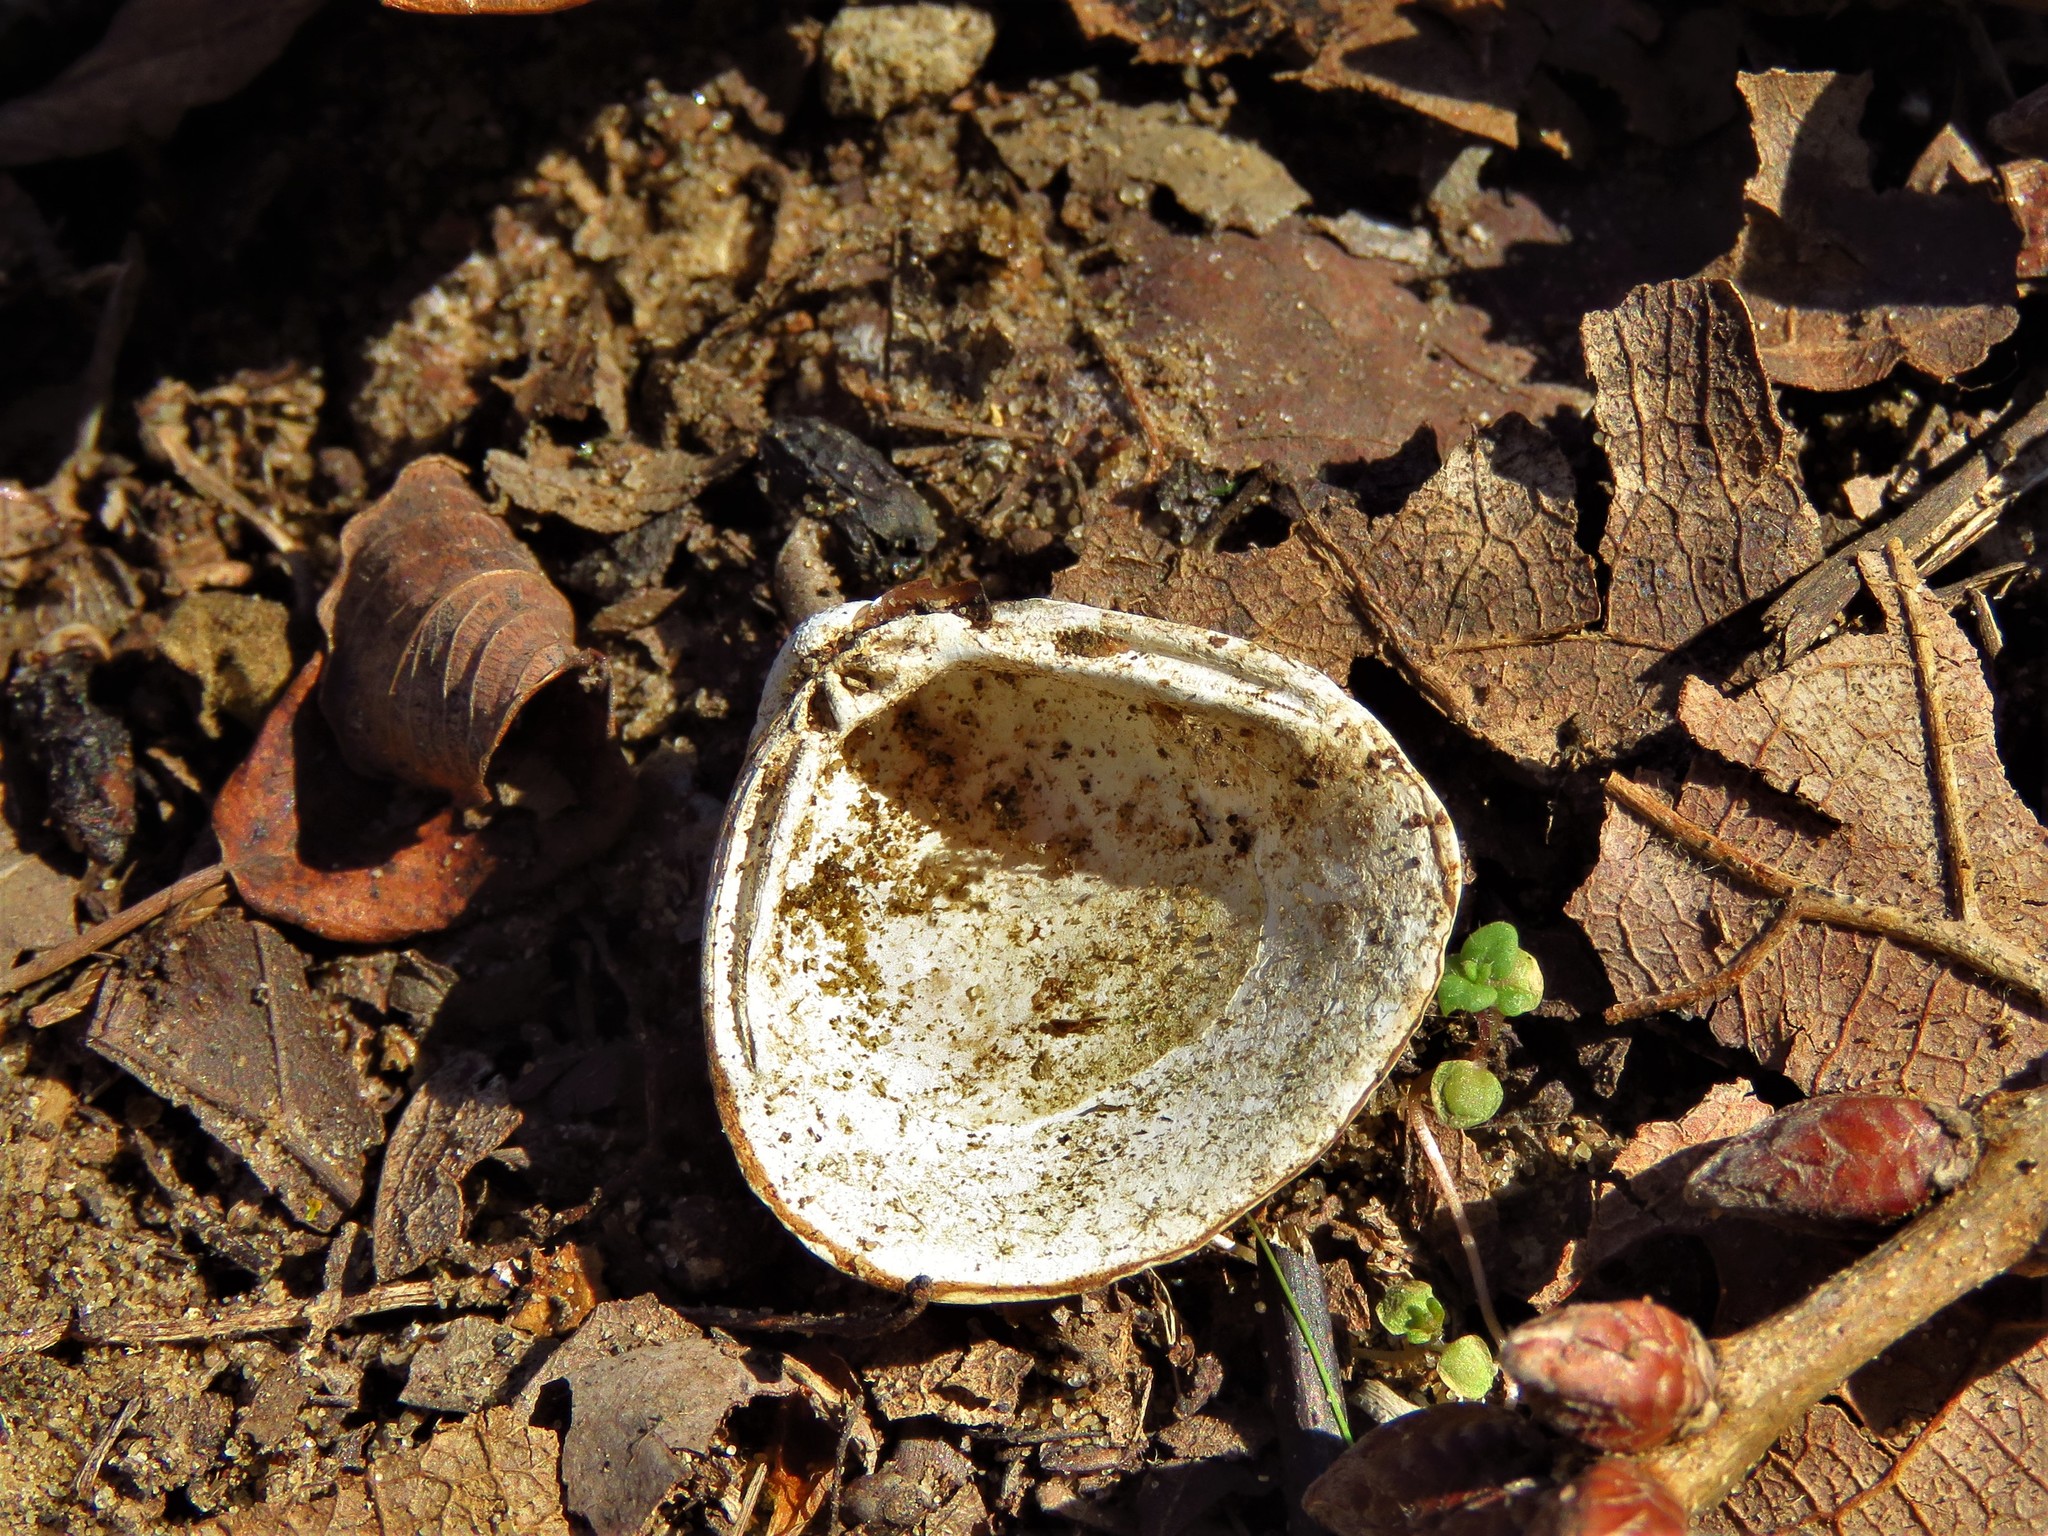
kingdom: Animalia
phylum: Mollusca
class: Bivalvia
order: Venerida
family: Cyrenidae
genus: Corbicula
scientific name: Corbicula fluminea
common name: Asian clam
